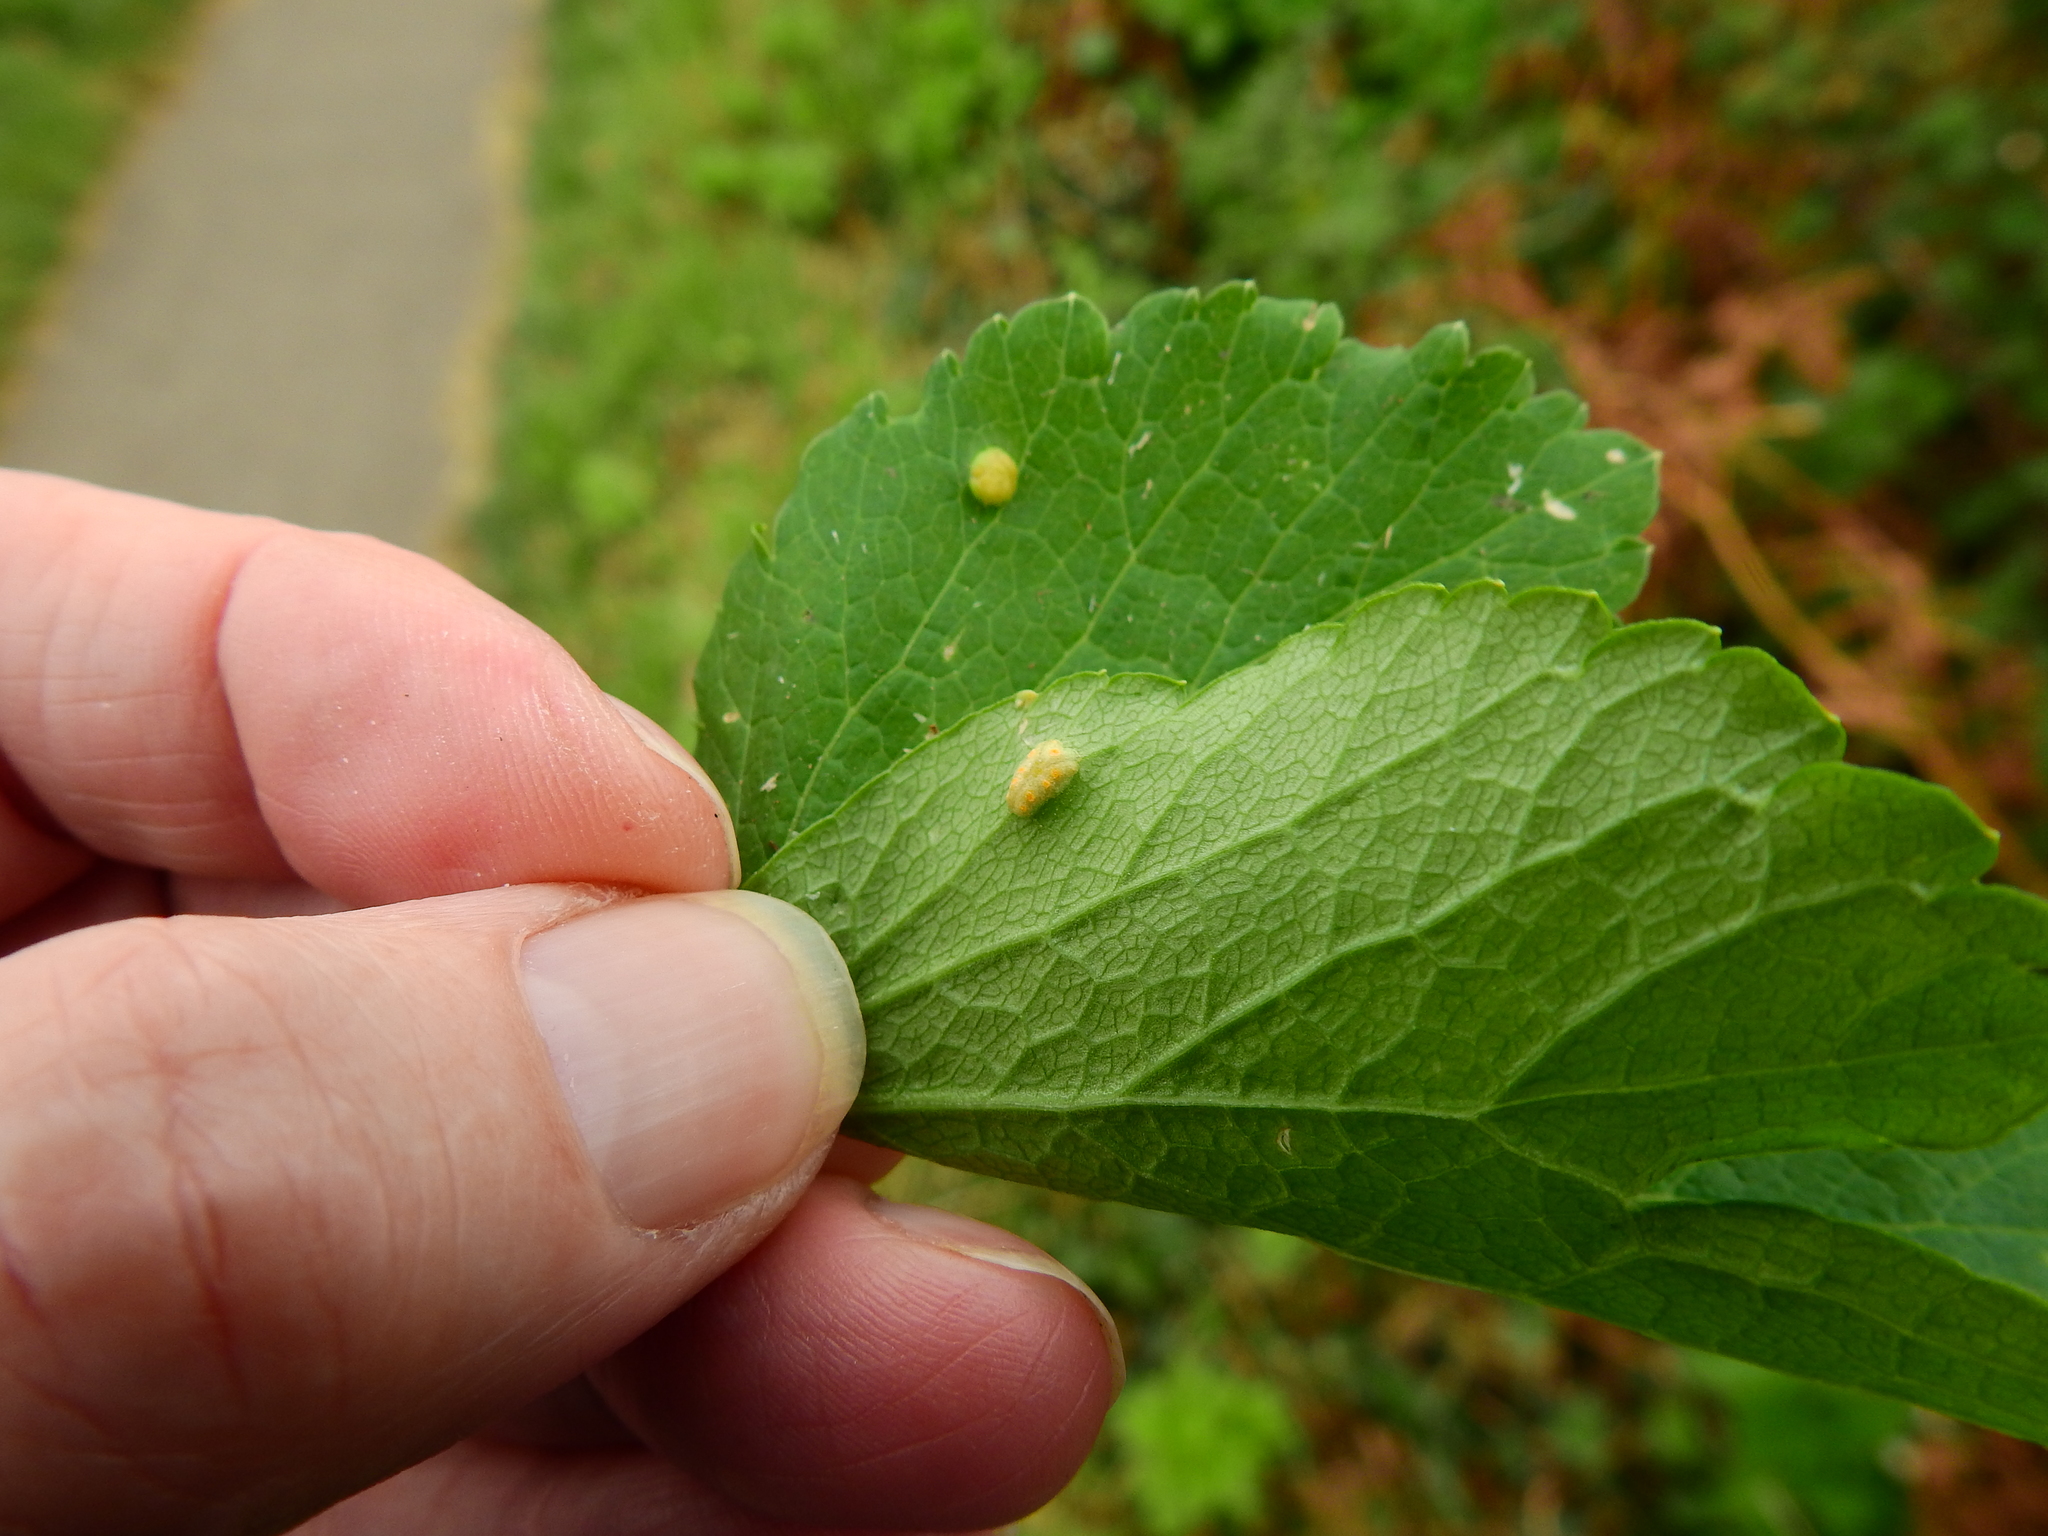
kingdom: Fungi
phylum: Basidiomycota
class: Pucciniomycetes
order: Pucciniales
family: Pucciniaceae
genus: Puccinia
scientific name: Puccinia smyrnii
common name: Alexanders rust
